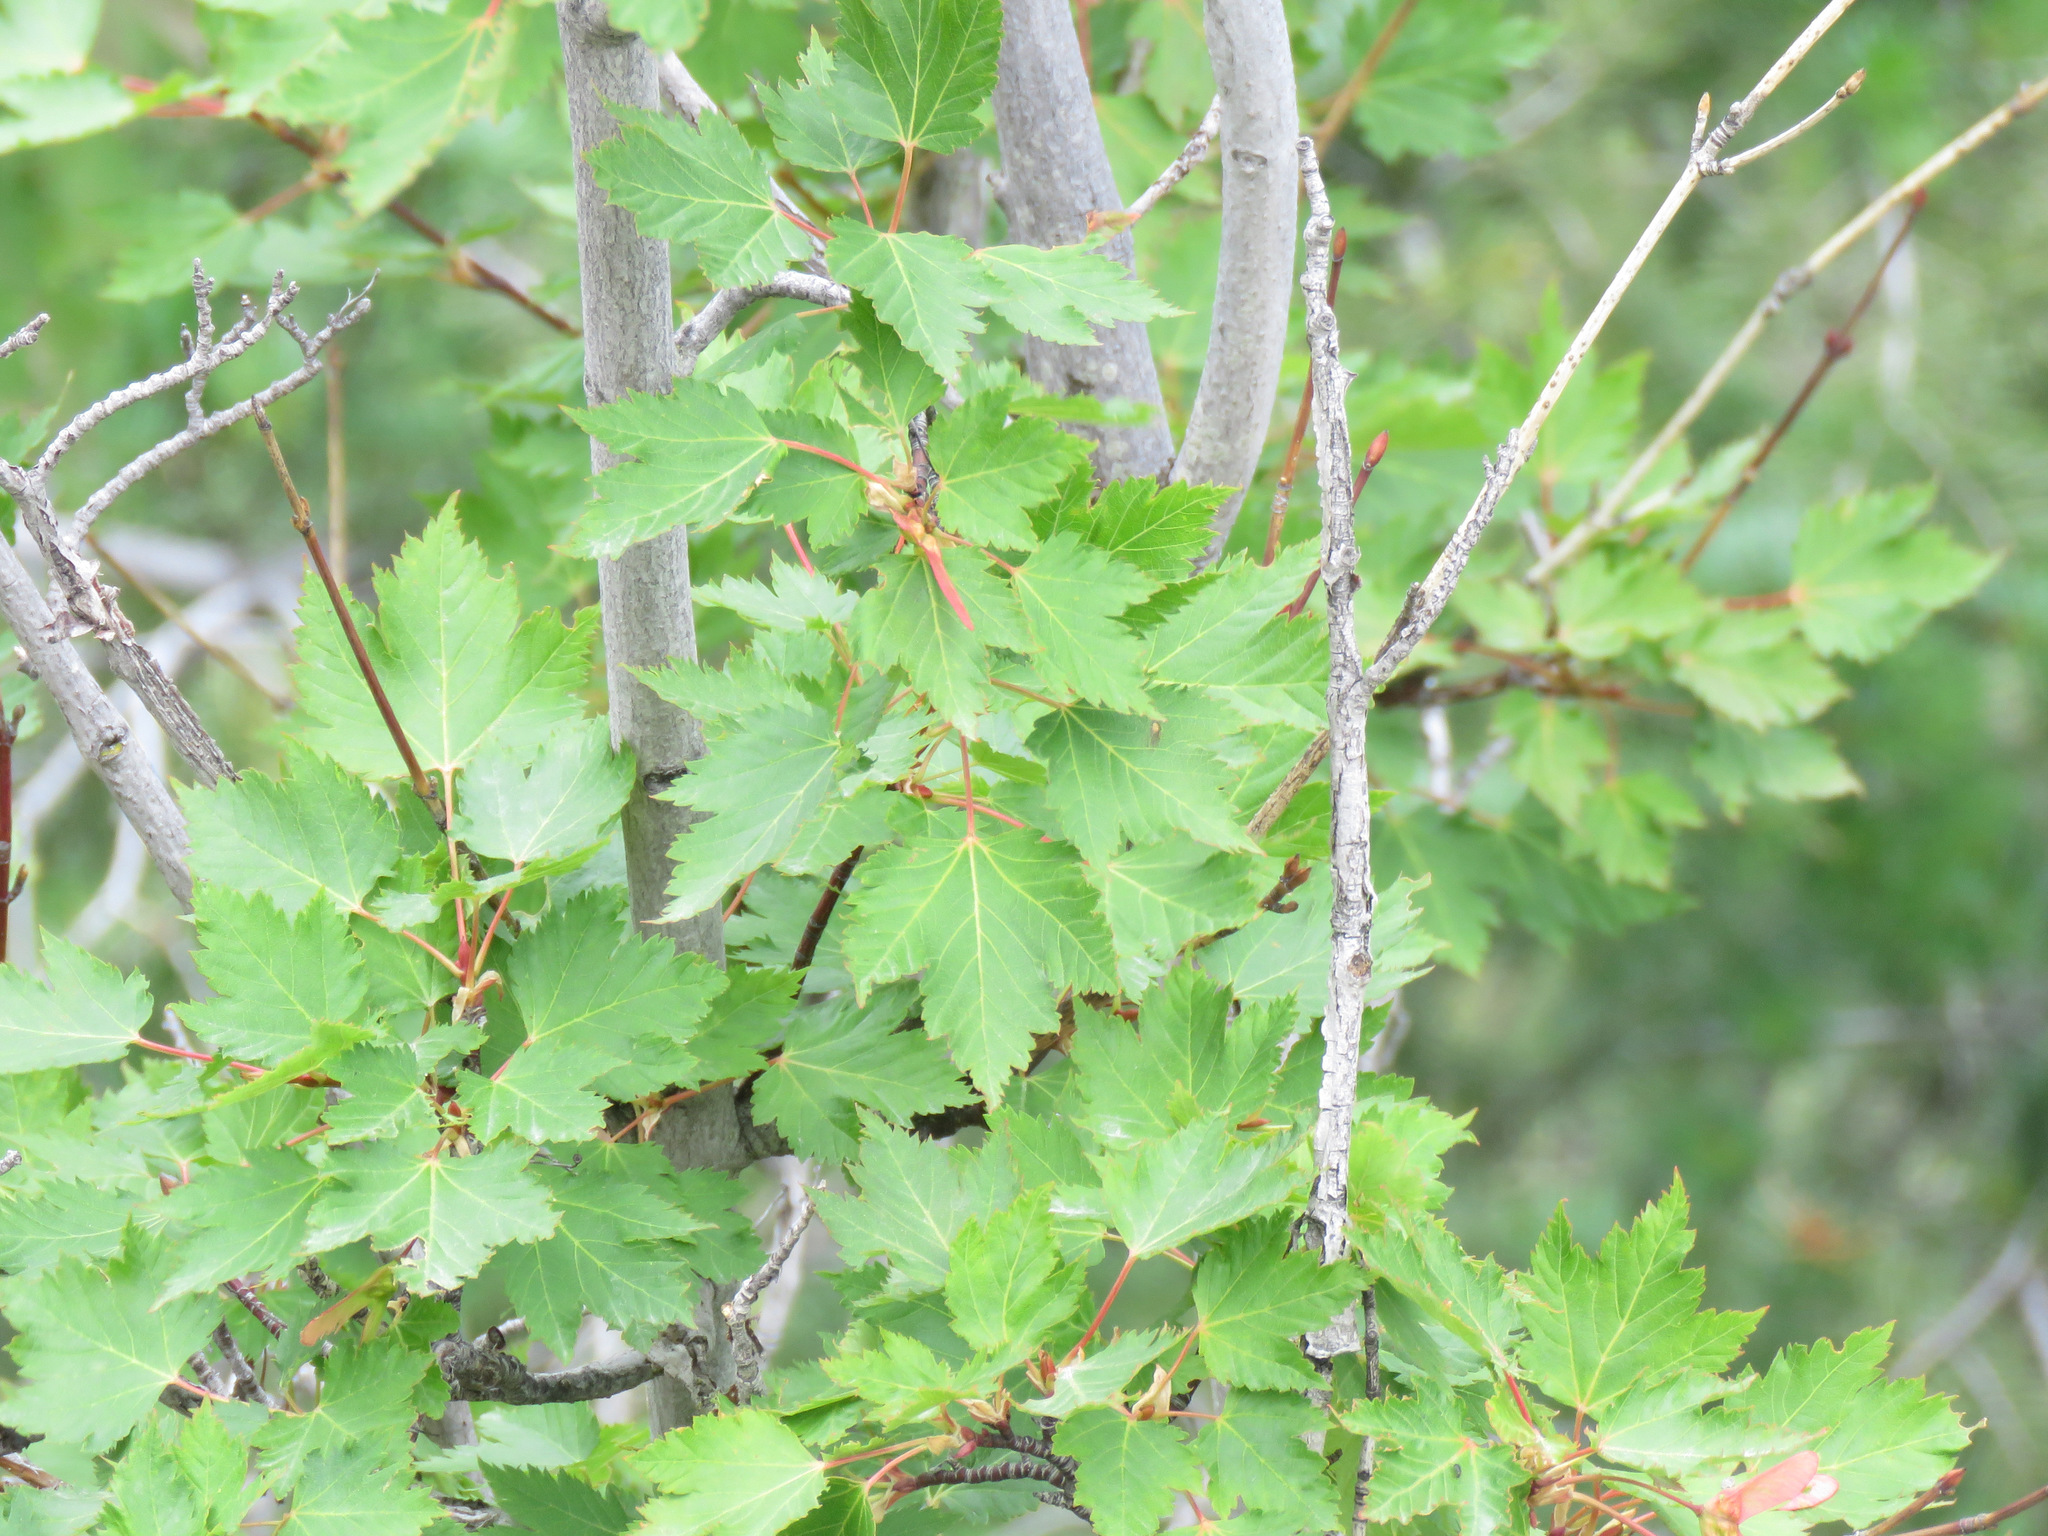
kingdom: Plantae
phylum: Tracheophyta
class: Magnoliopsida
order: Sapindales
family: Sapindaceae
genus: Acer
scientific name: Acer glabrum
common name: Rocky mountain maple
